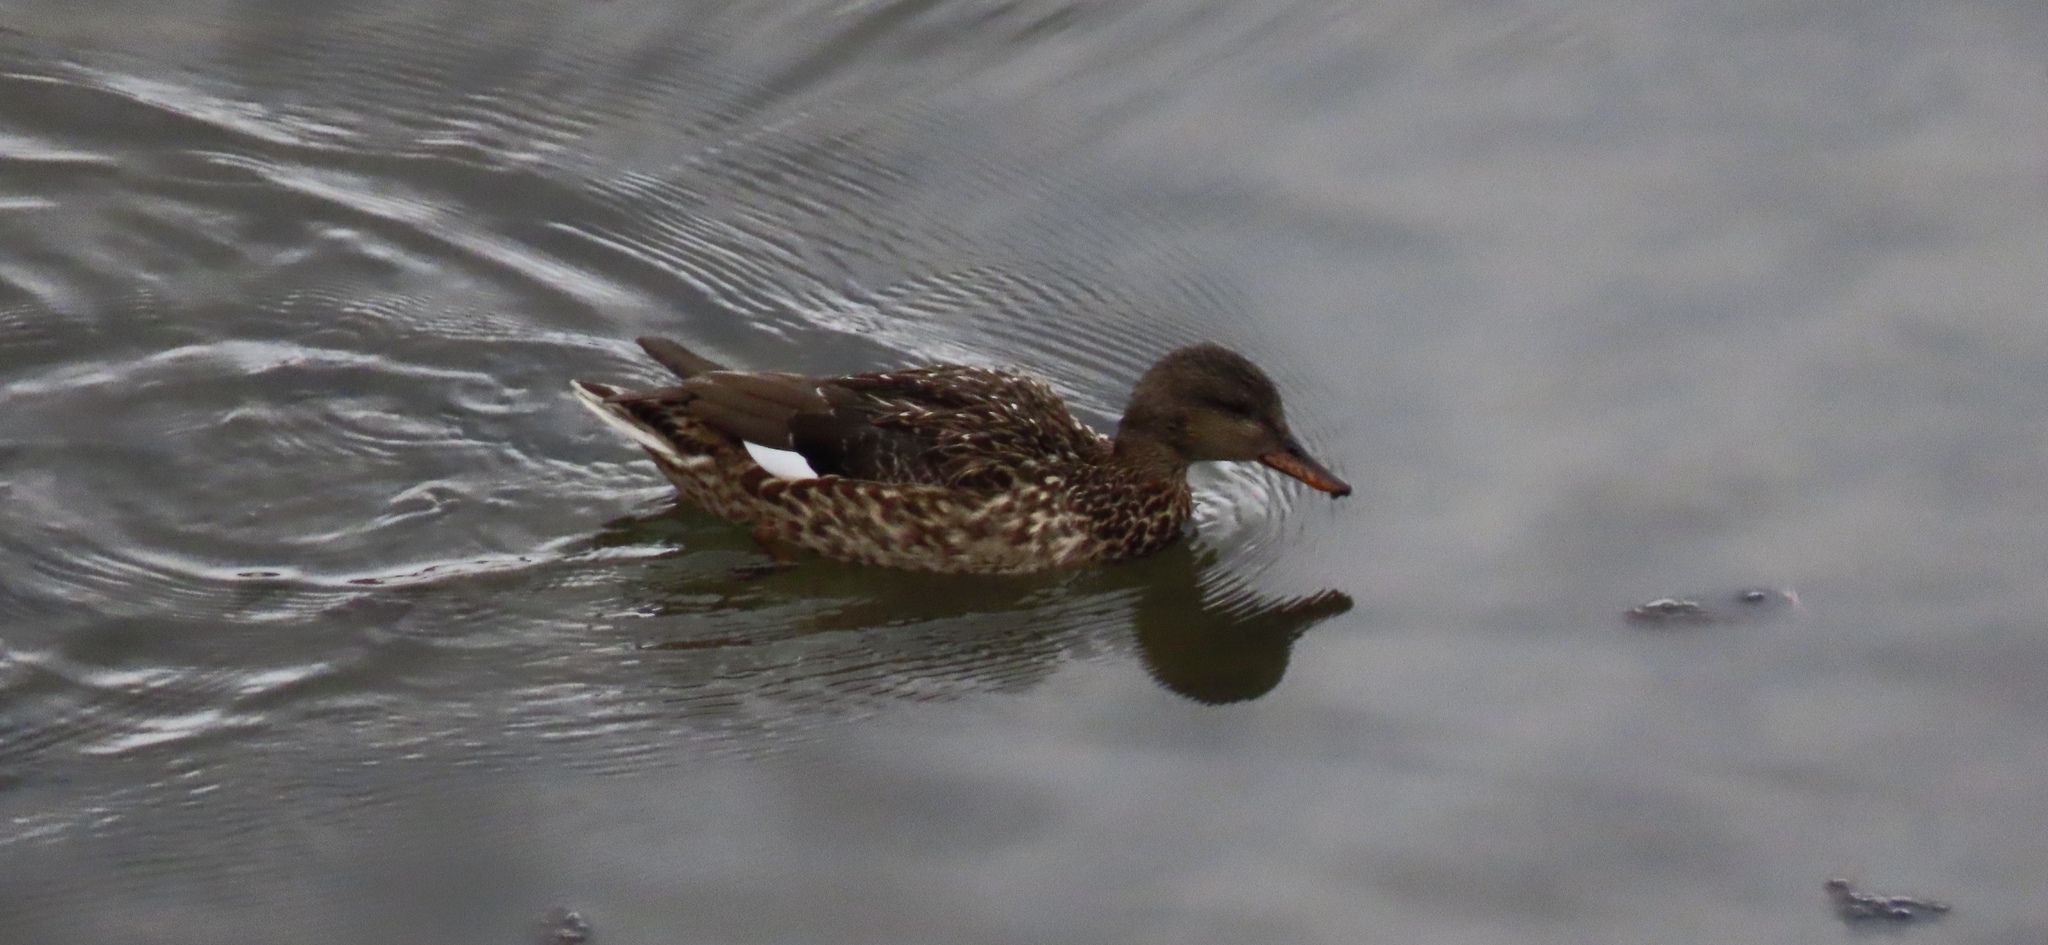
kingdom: Animalia
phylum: Chordata
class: Aves
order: Anseriformes
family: Anatidae
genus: Mareca
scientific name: Mareca strepera
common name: Gadwall
